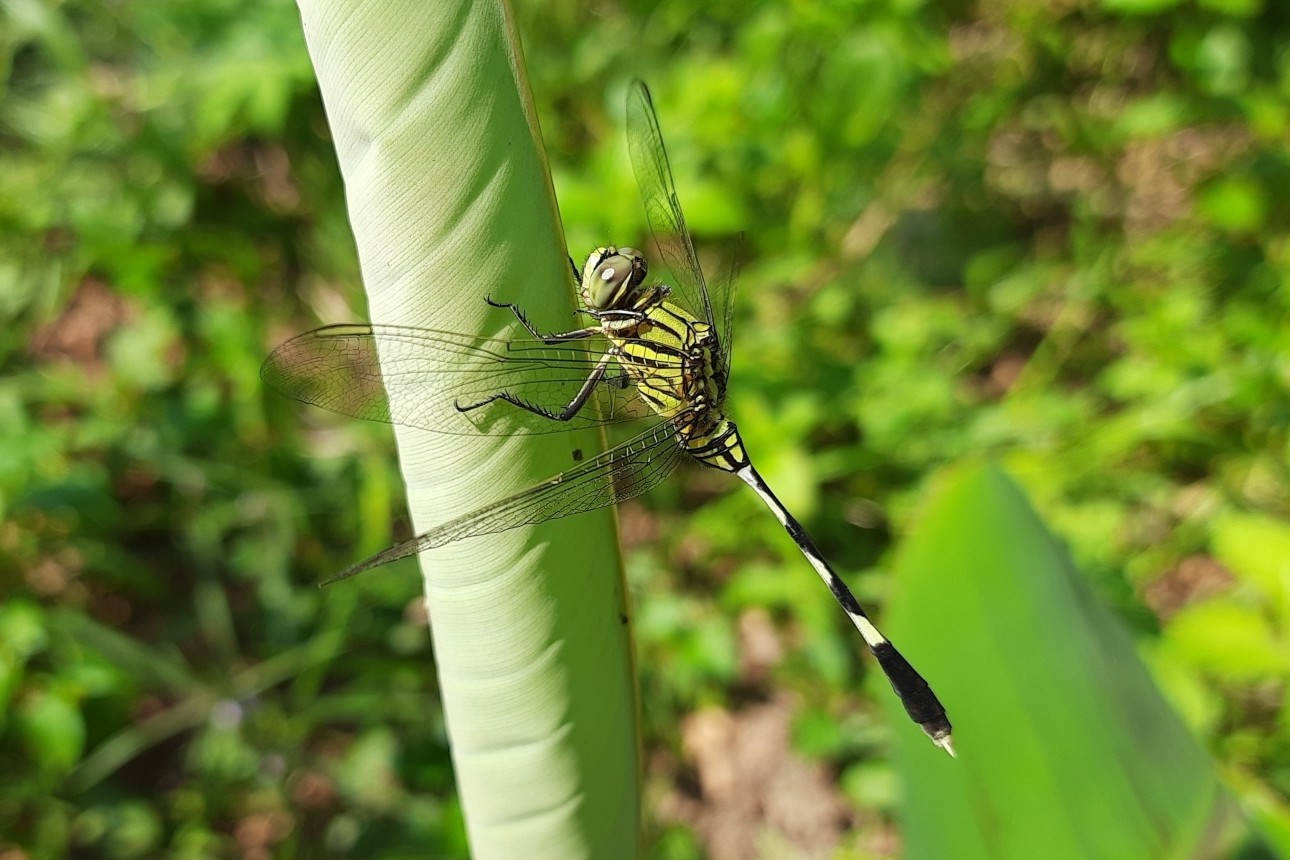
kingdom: Animalia
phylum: Arthropoda
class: Insecta
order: Odonata
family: Libellulidae
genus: Orthetrum
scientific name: Orthetrum sabina
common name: Slender skimmer
